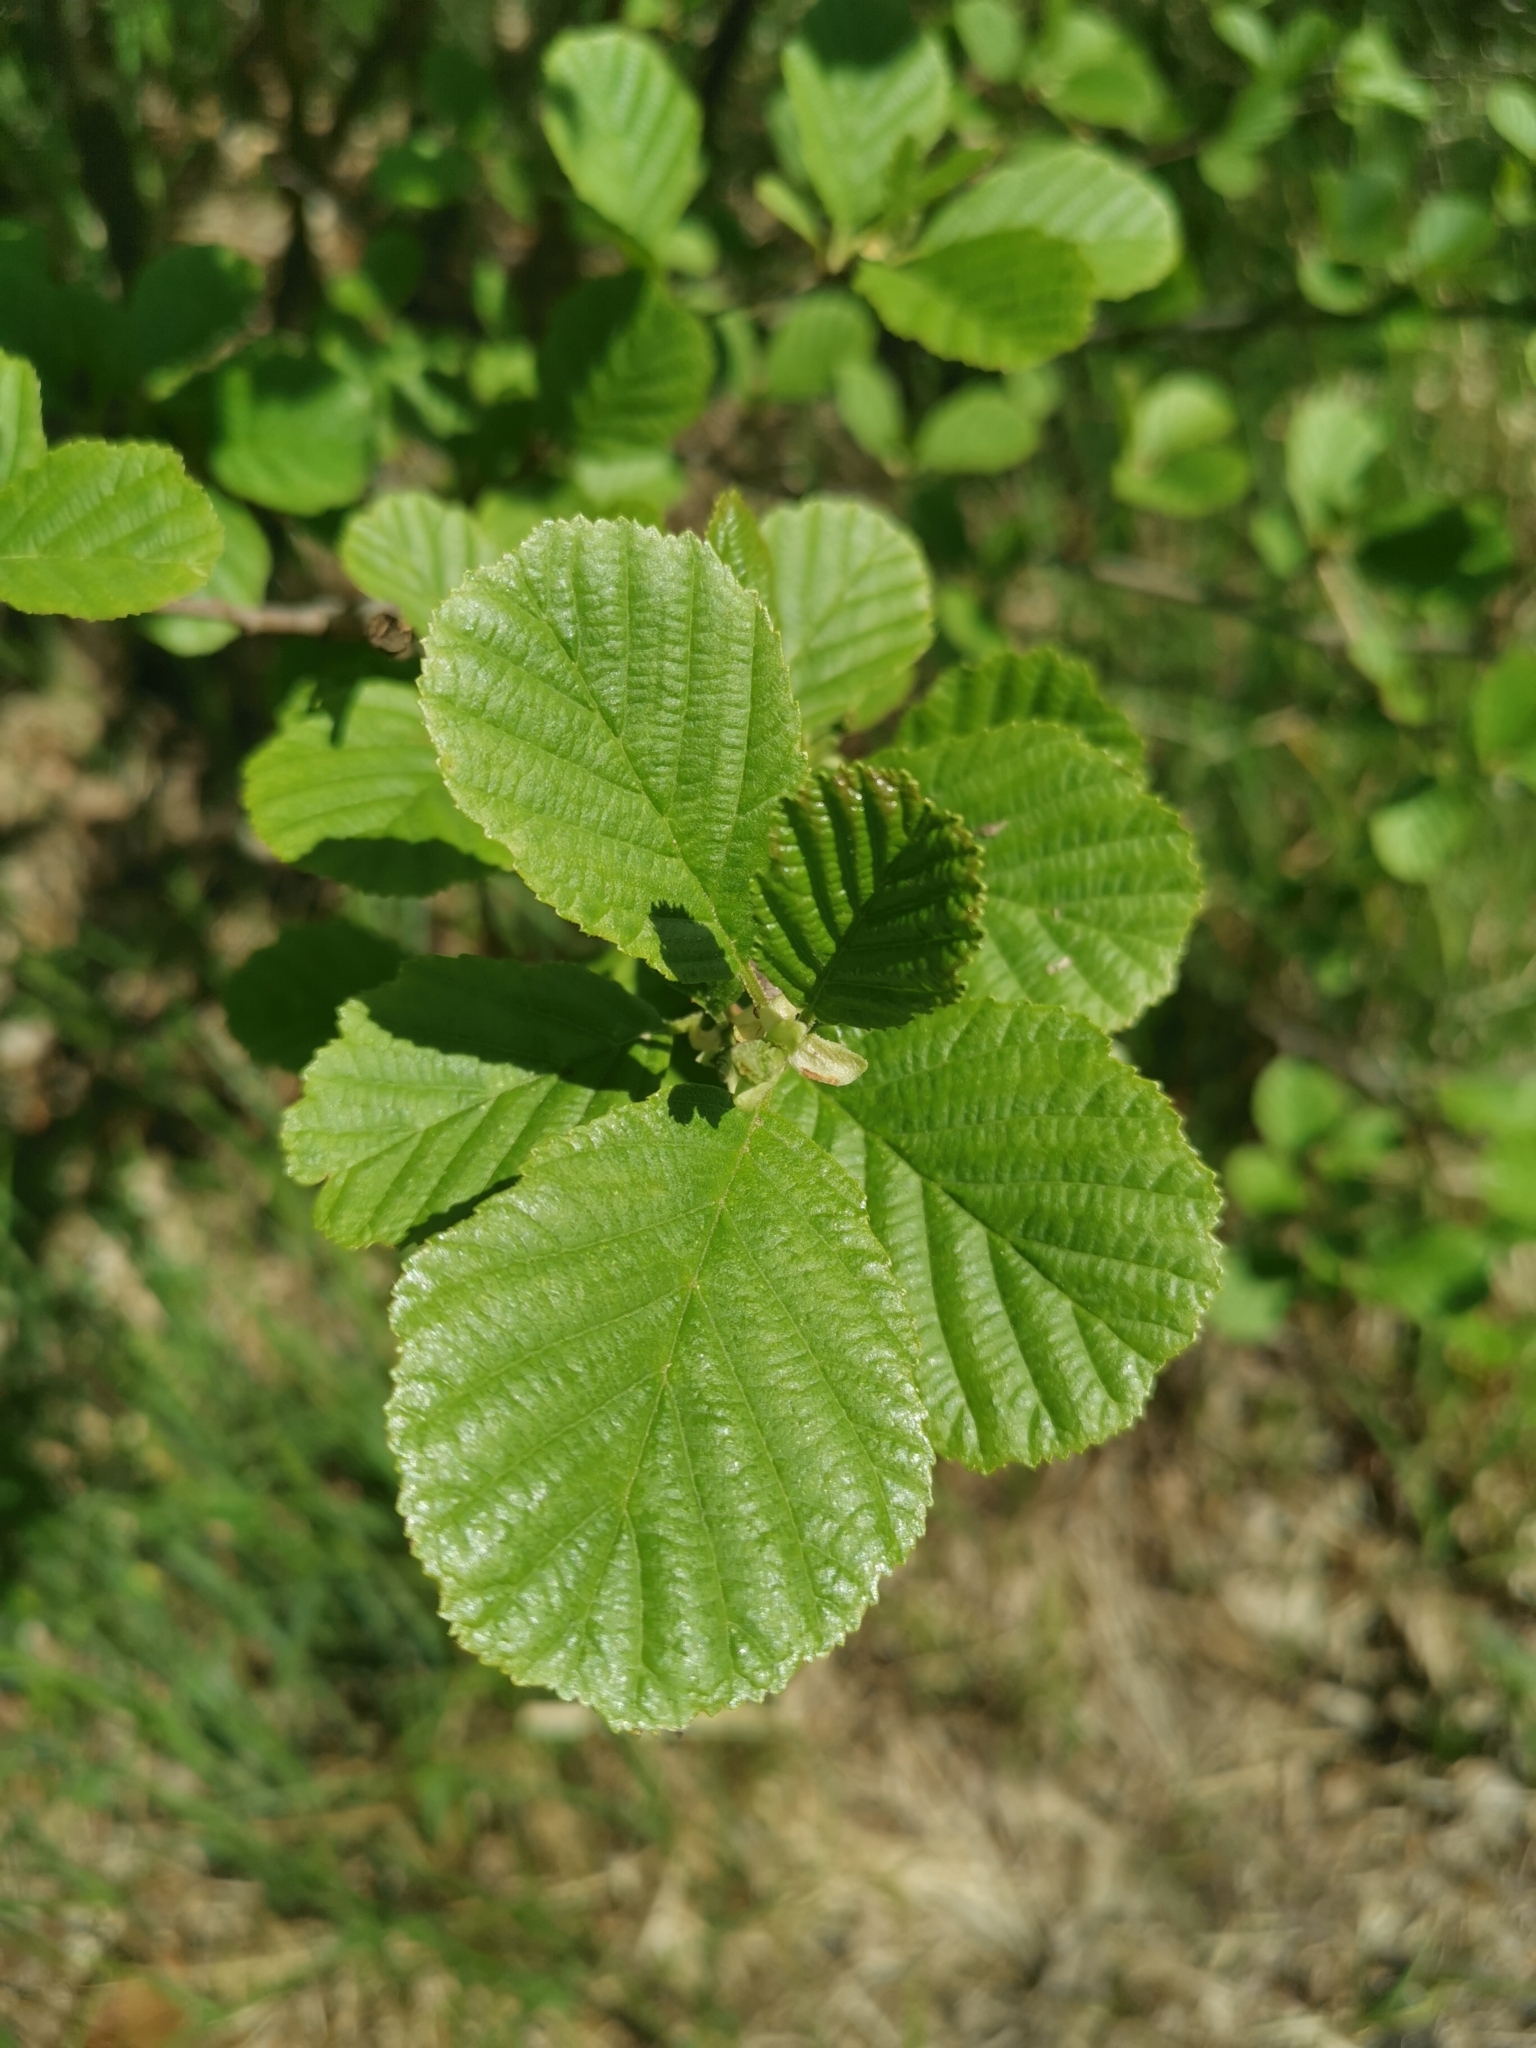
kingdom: Plantae
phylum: Tracheophyta
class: Magnoliopsida
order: Fagales
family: Betulaceae
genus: Alnus
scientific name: Alnus glutinosa
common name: Black alder
